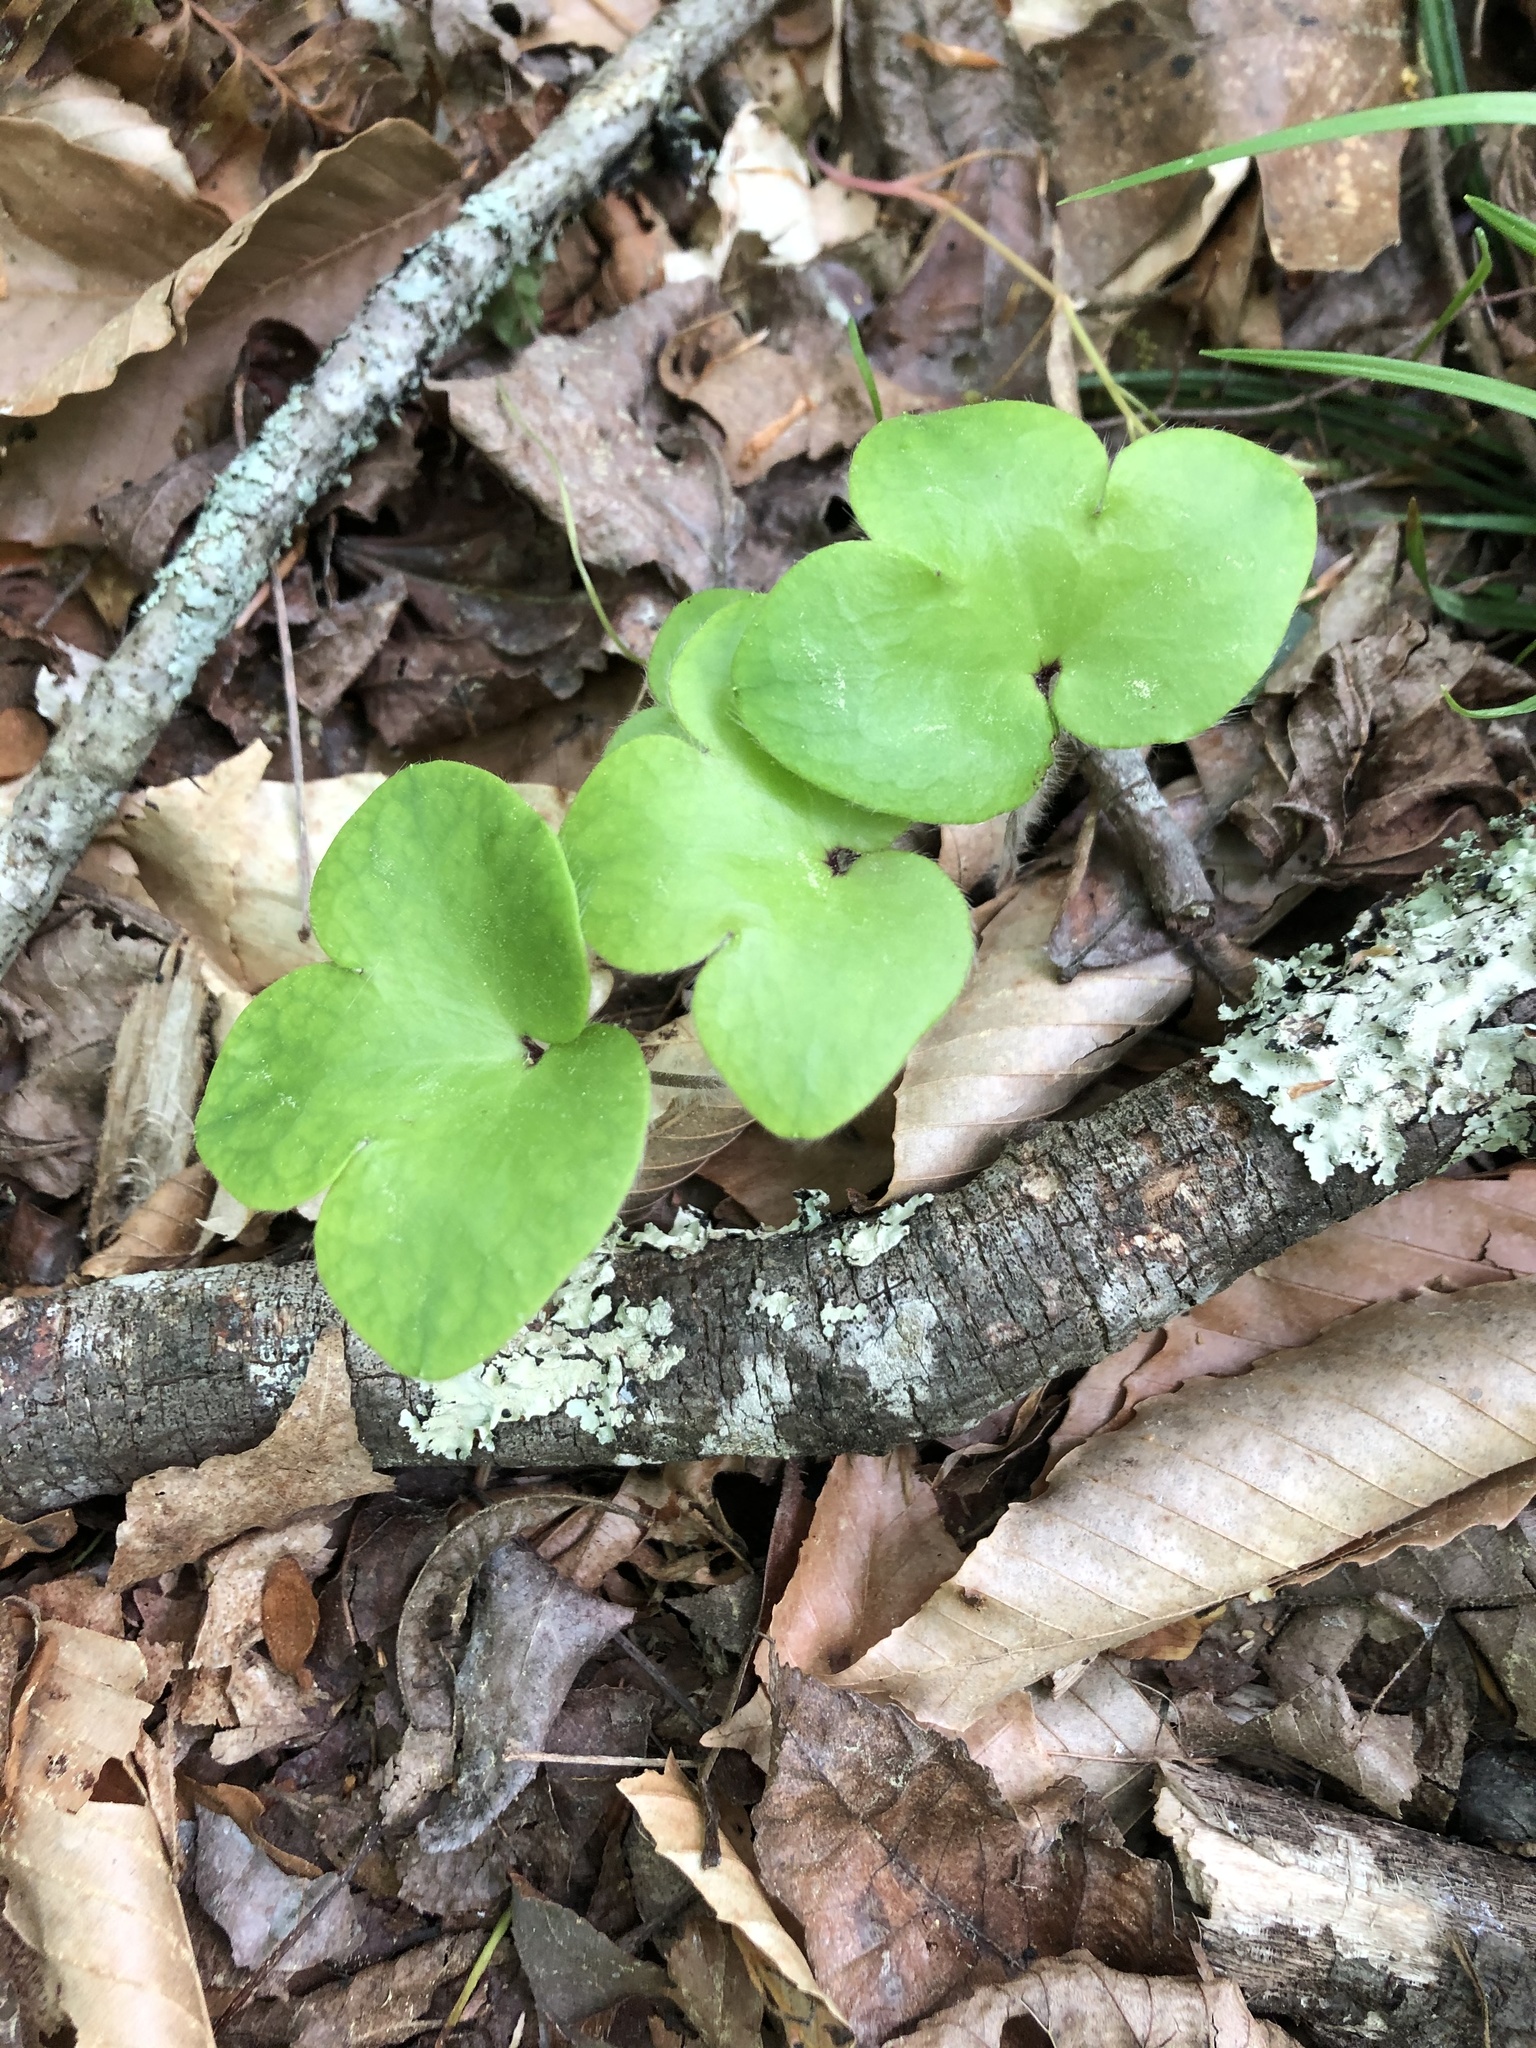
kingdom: Plantae
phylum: Tracheophyta
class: Magnoliopsida
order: Ranunculales
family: Ranunculaceae
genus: Hepatica
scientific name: Hepatica americana
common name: American hepatica
